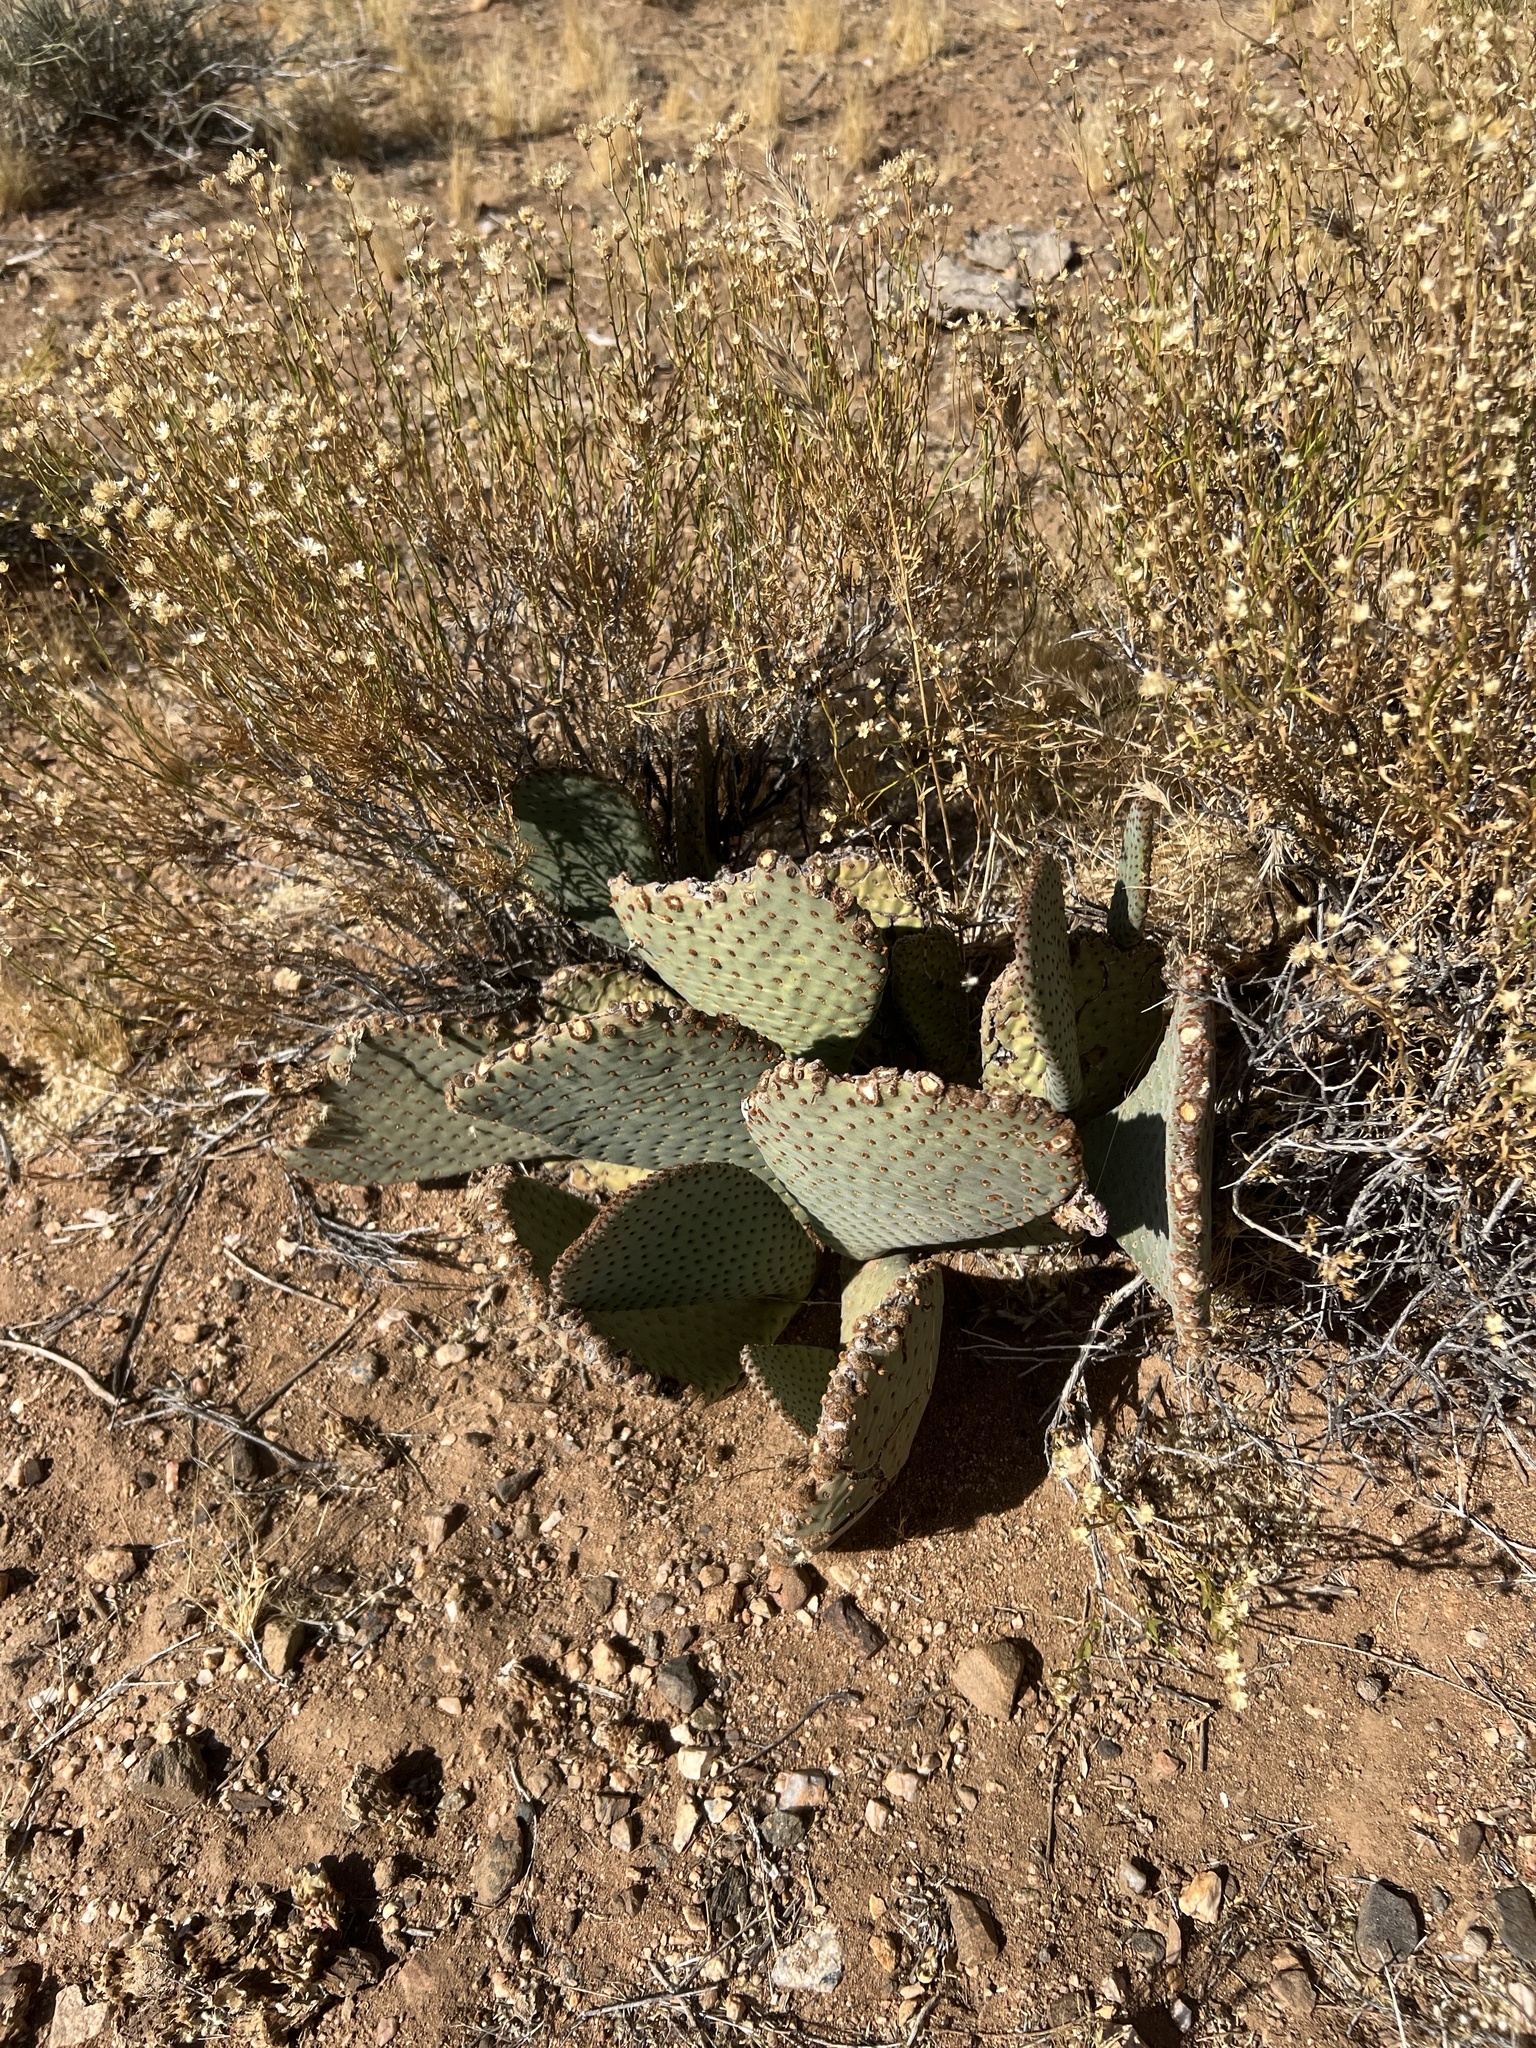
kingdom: Plantae
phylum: Tracheophyta
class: Magnoliopsida
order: Caryophyllales
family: Cactaceae
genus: Opuntia
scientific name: Opuntia basilaris
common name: Beavertail prickly-pear
